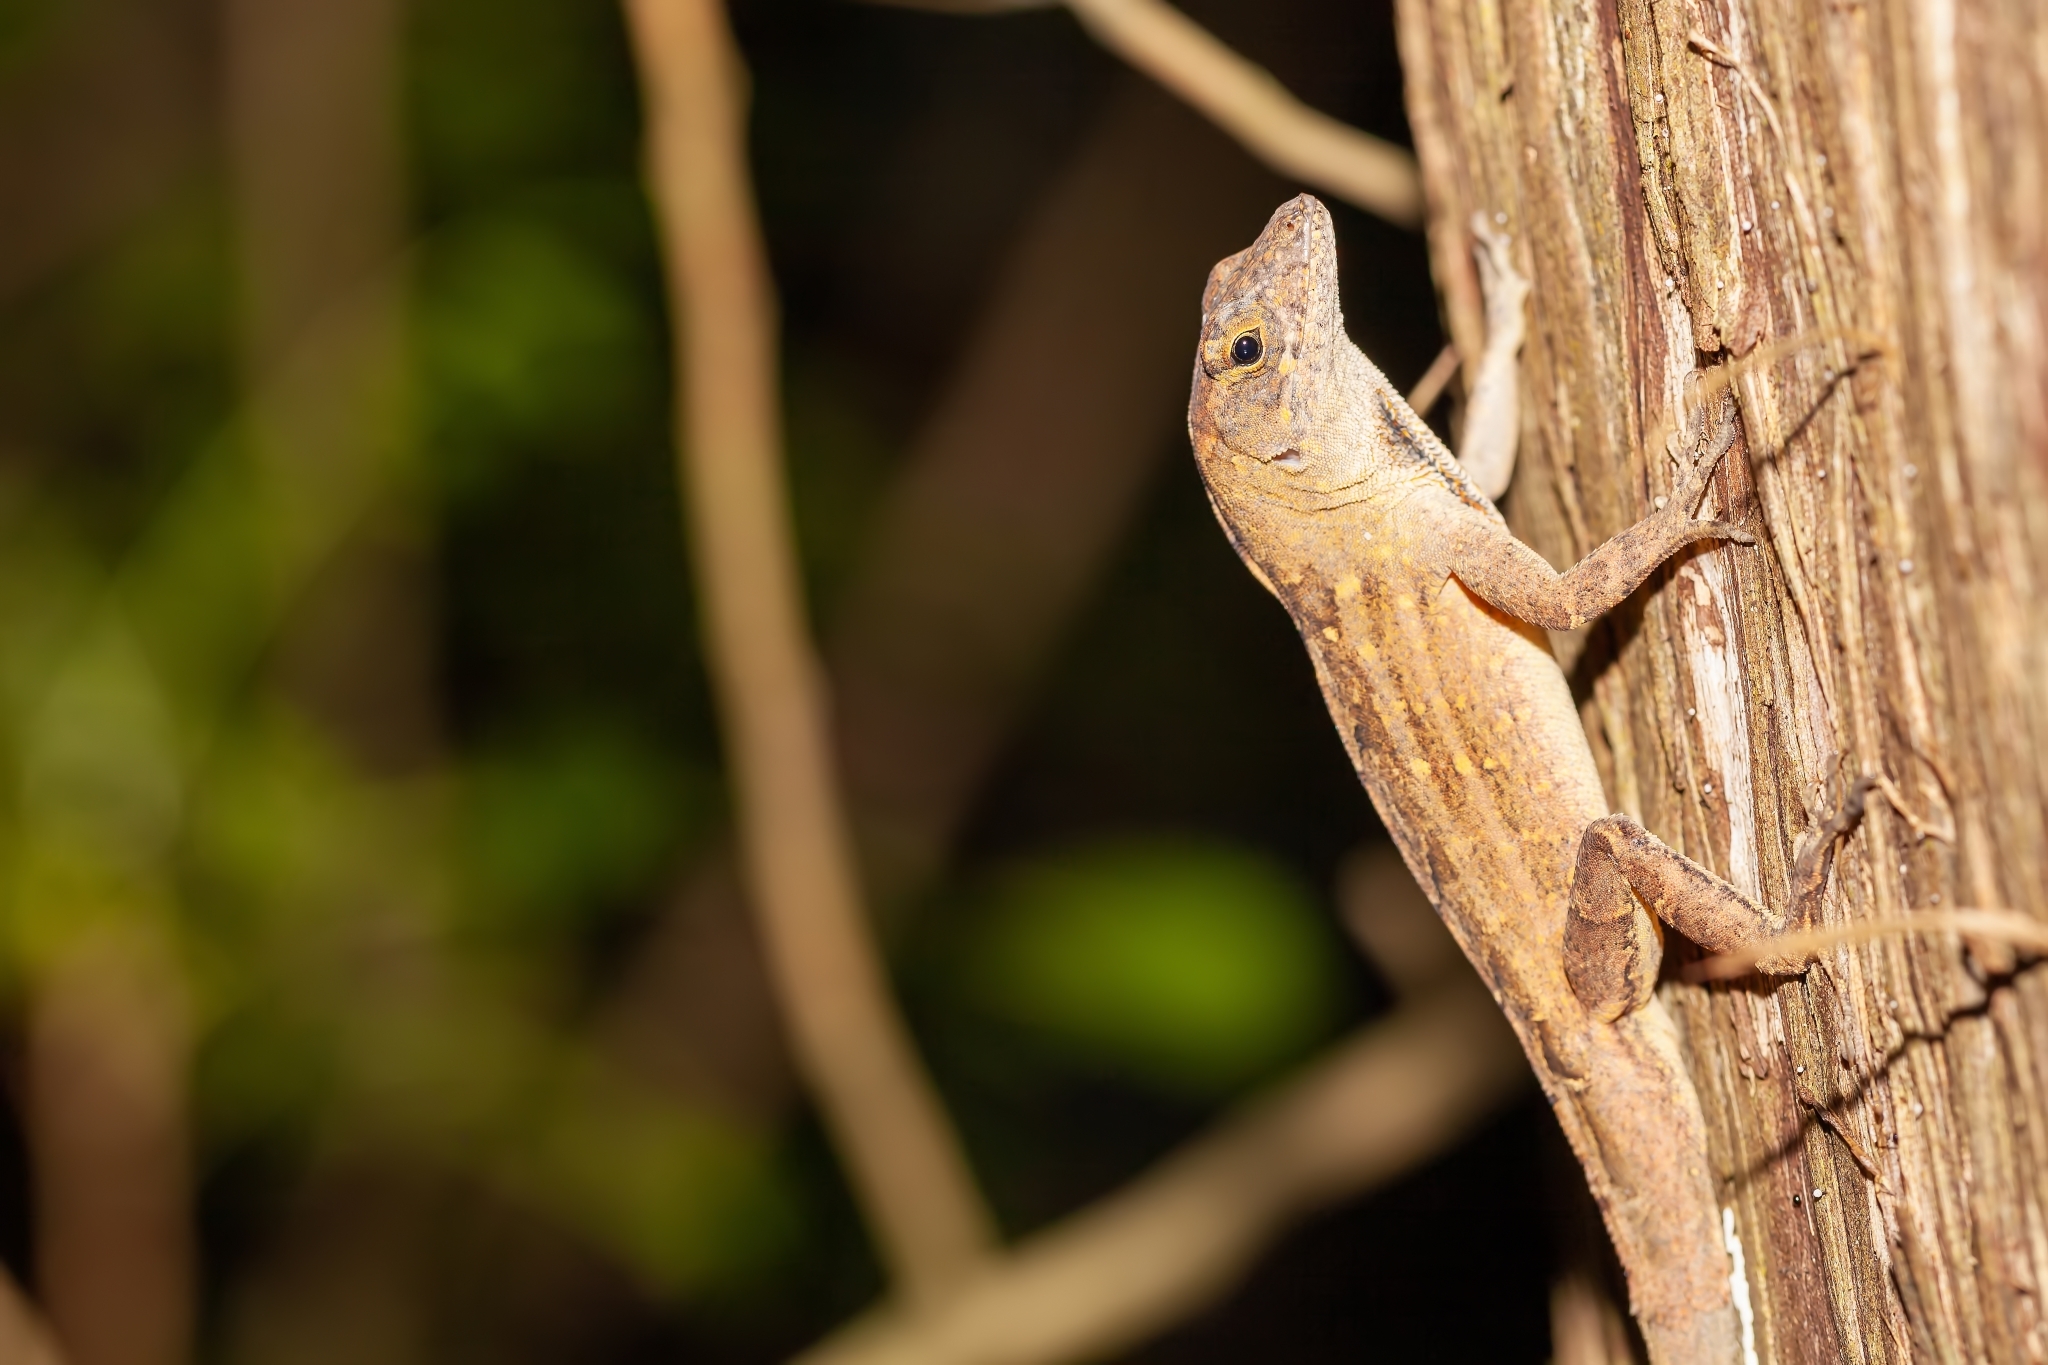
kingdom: Animalia
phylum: Chordata
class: Squamata
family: Dactyloidae
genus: Anolis
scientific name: Anolis sagrei
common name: Brown anole
